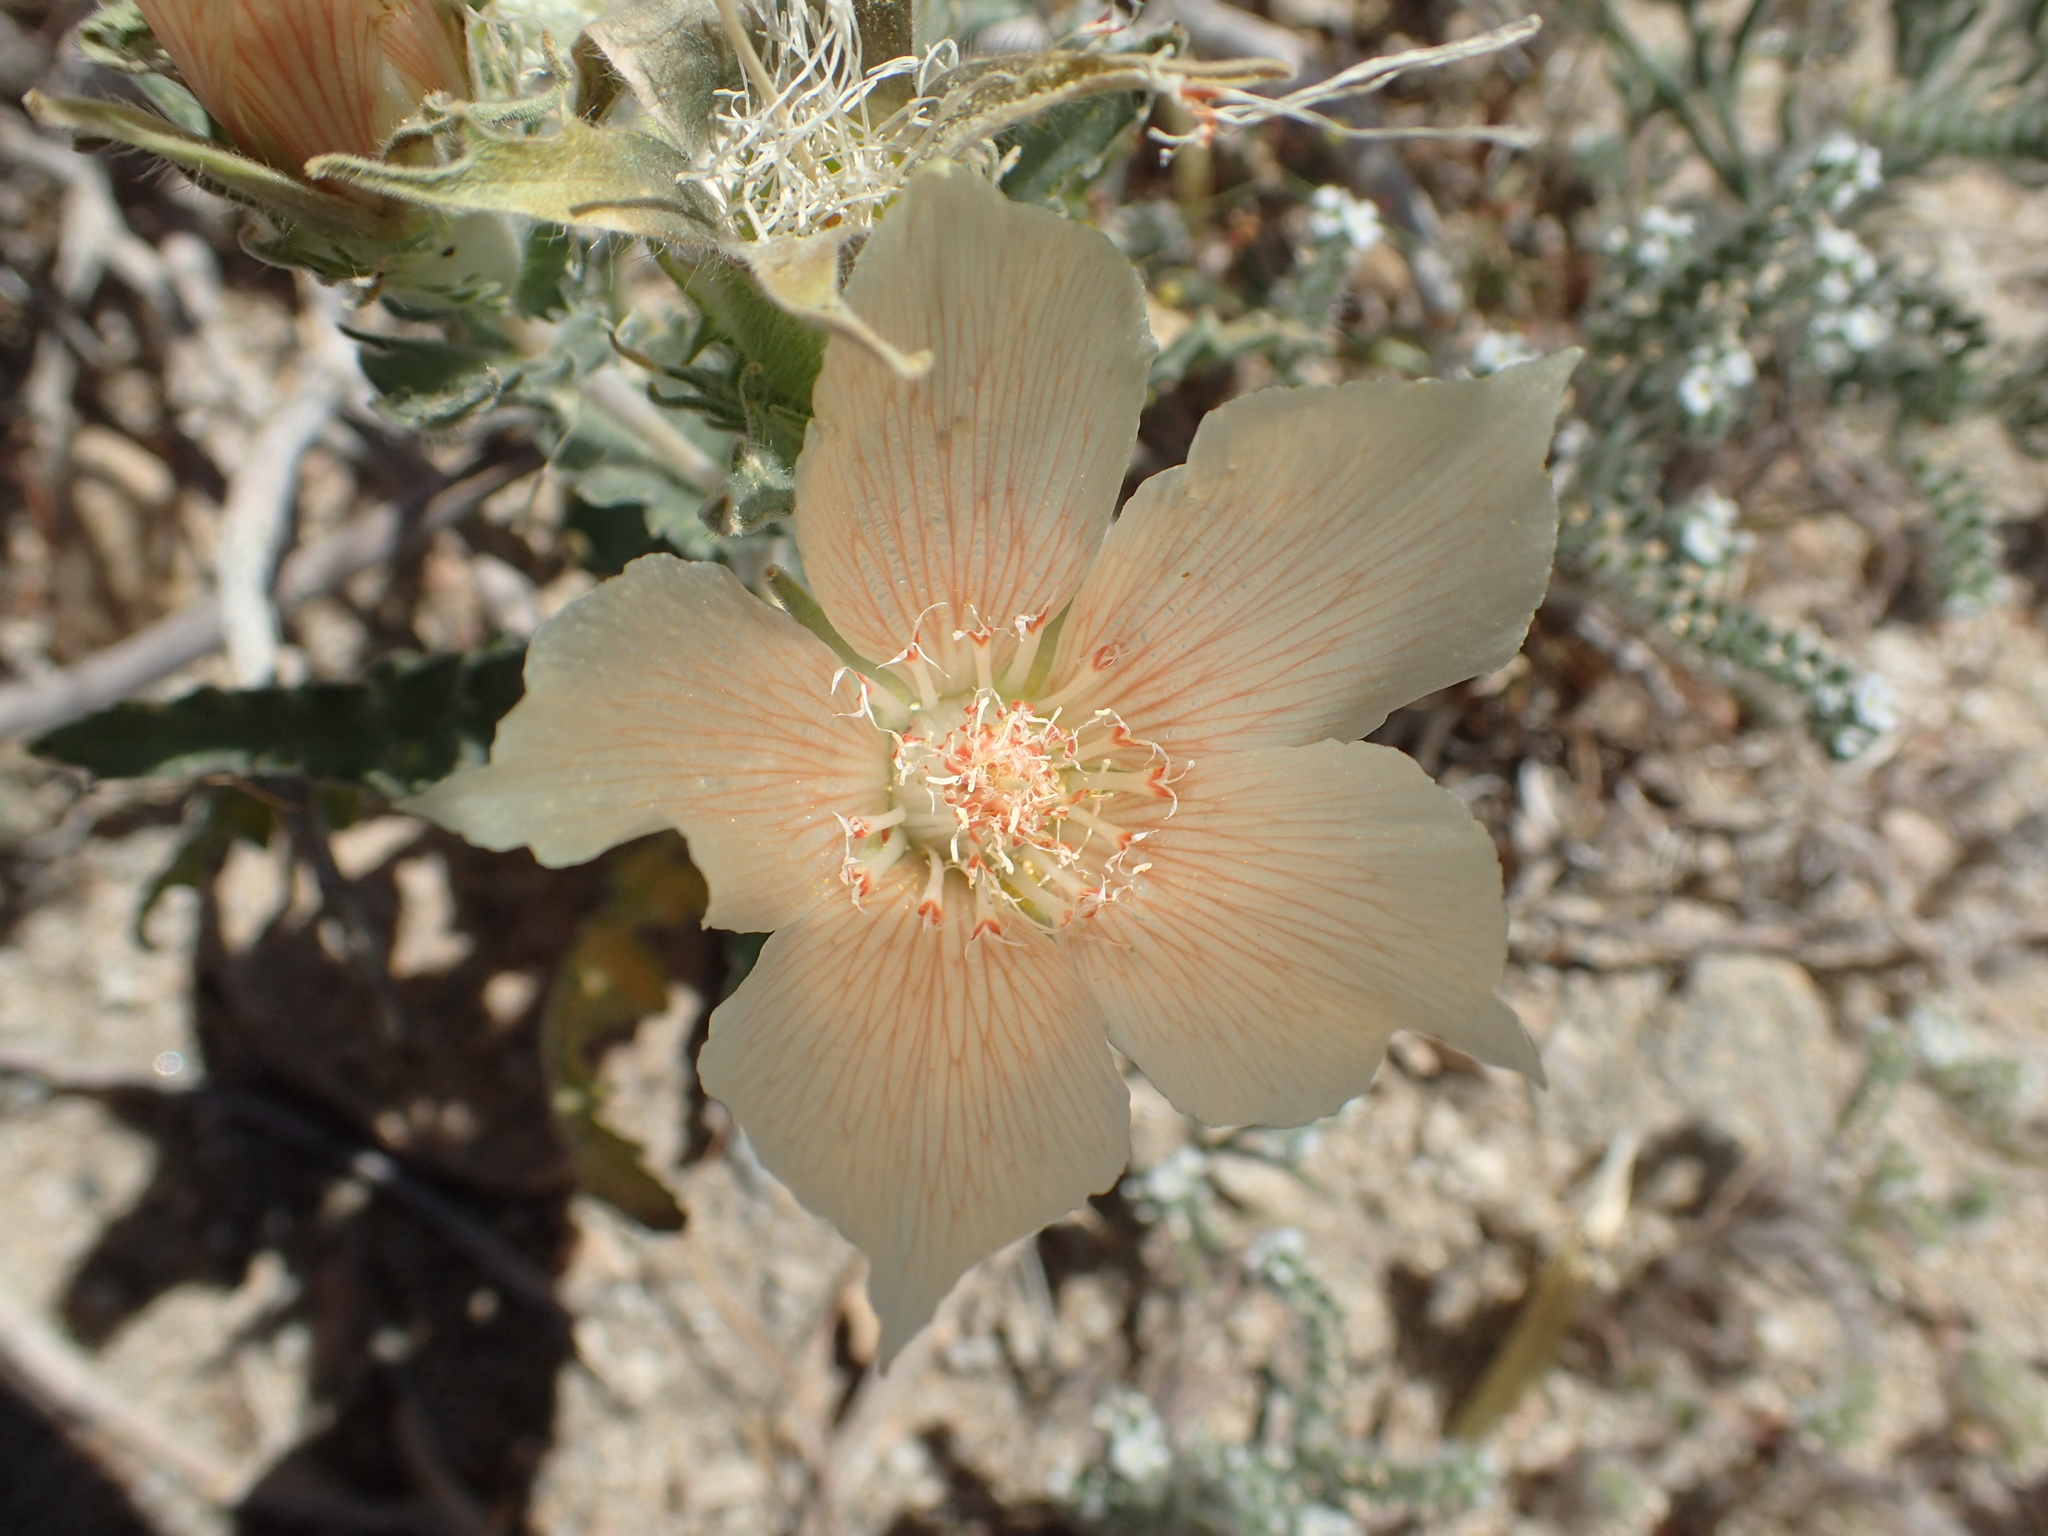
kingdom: Plantae
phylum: Tracheophyta
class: Magnoliopsida
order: Cornales
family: Loasaceae
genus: Mentzelia
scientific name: Mentzelia involucrata
